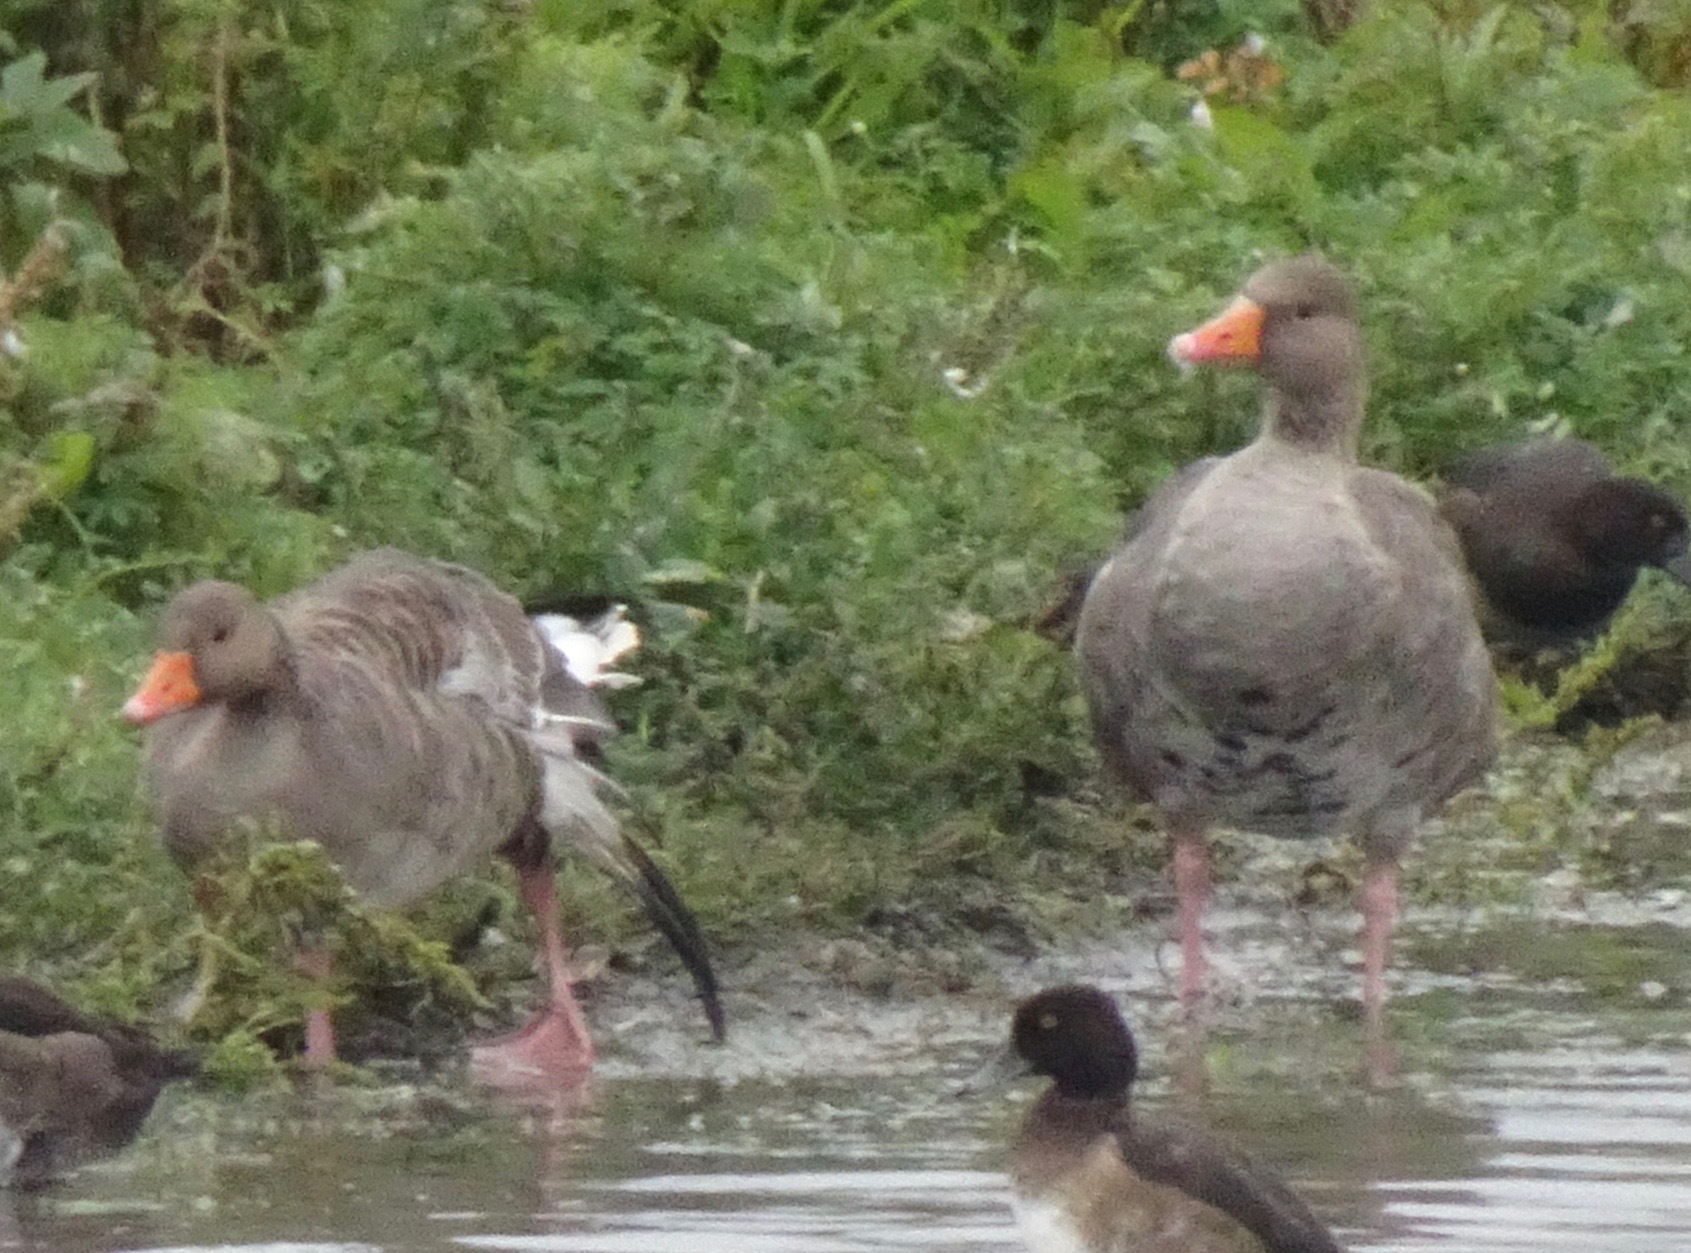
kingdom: Animalia
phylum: Chordata
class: Aves
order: Anseriformes
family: Anatidae
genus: Anser
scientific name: Anser anser
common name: Greylag goose
